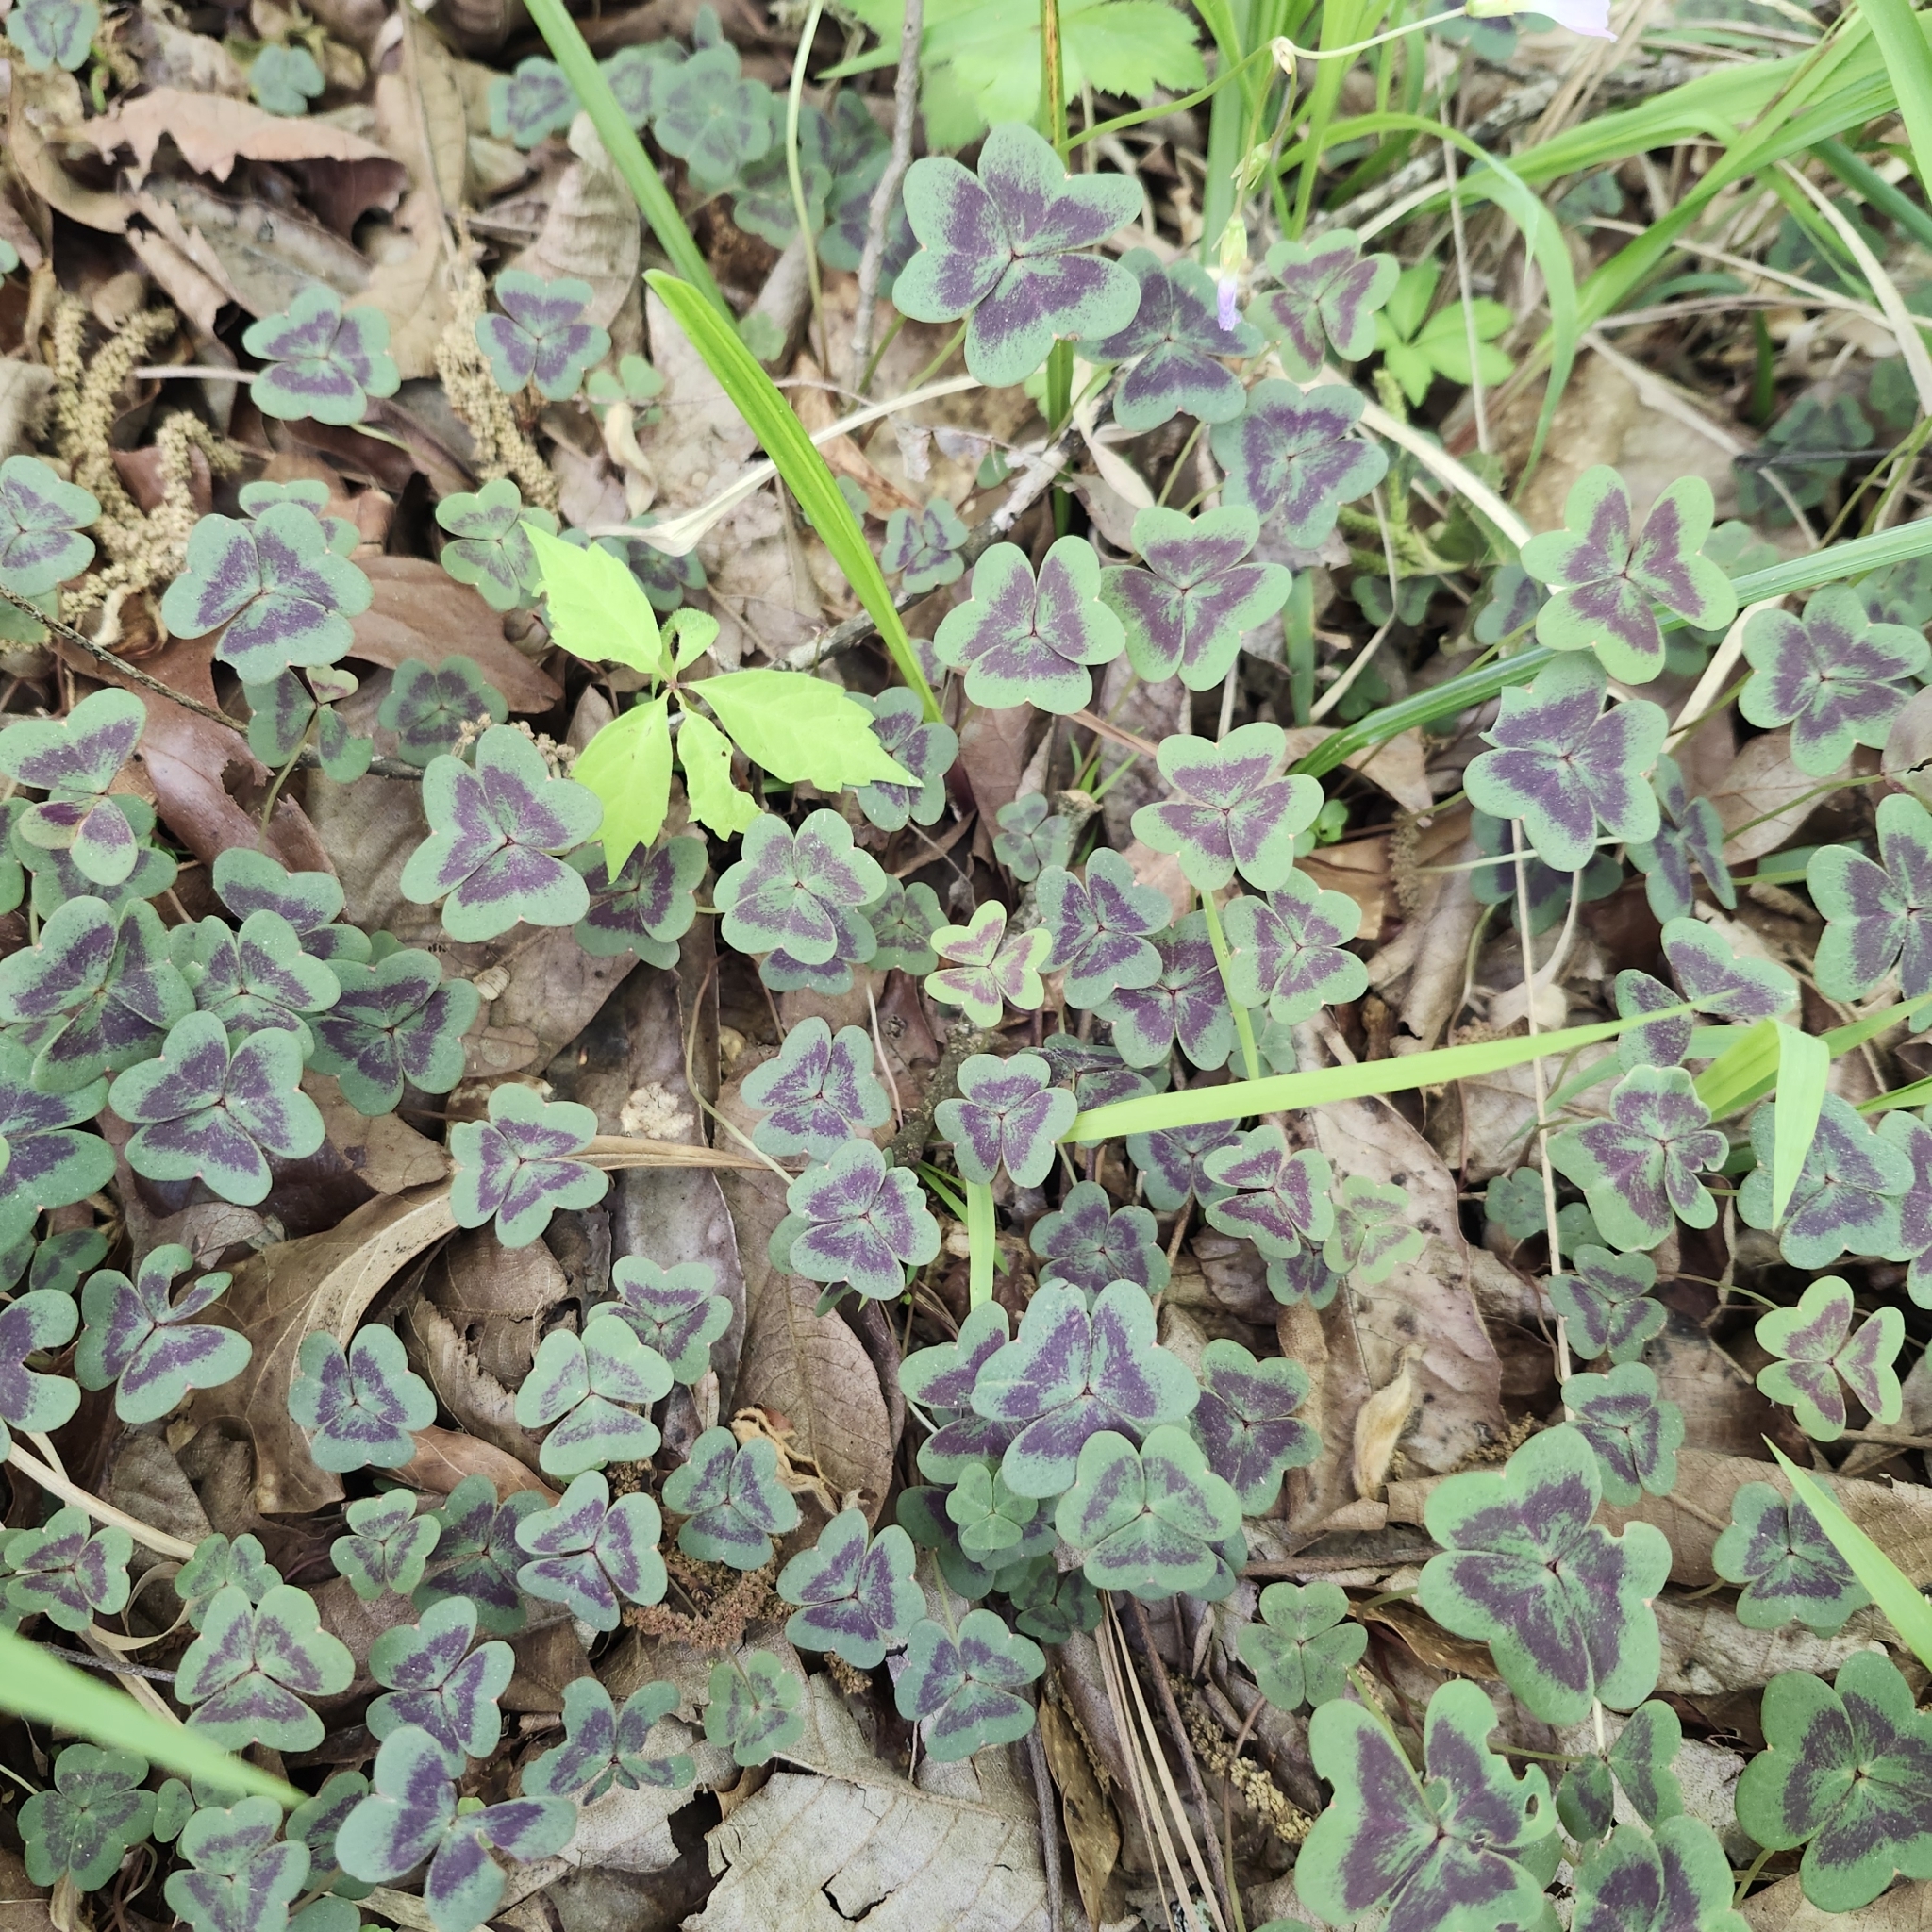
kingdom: Plantae
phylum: Tracheophyta
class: Magnoliopsida
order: Oxalidales
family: Oxalidaceae
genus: Oxalis
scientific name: Oxalis violacea
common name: Violet wood-sorrel
